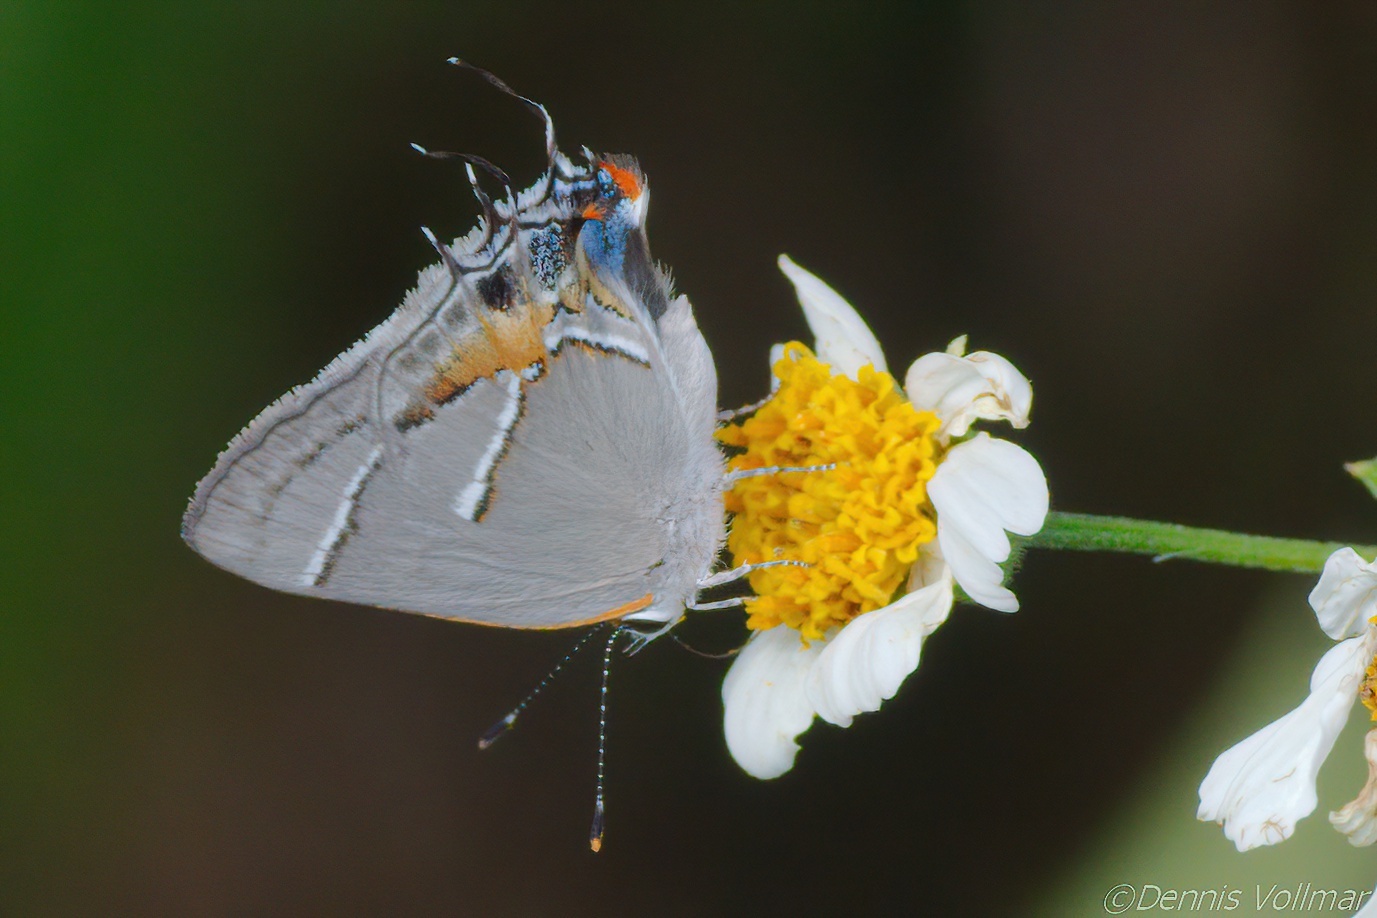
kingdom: Animalia
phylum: Arthropoda
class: Insecta
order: Lepidoptera
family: Lycaenidae
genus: Thecla
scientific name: Thecla martialis
